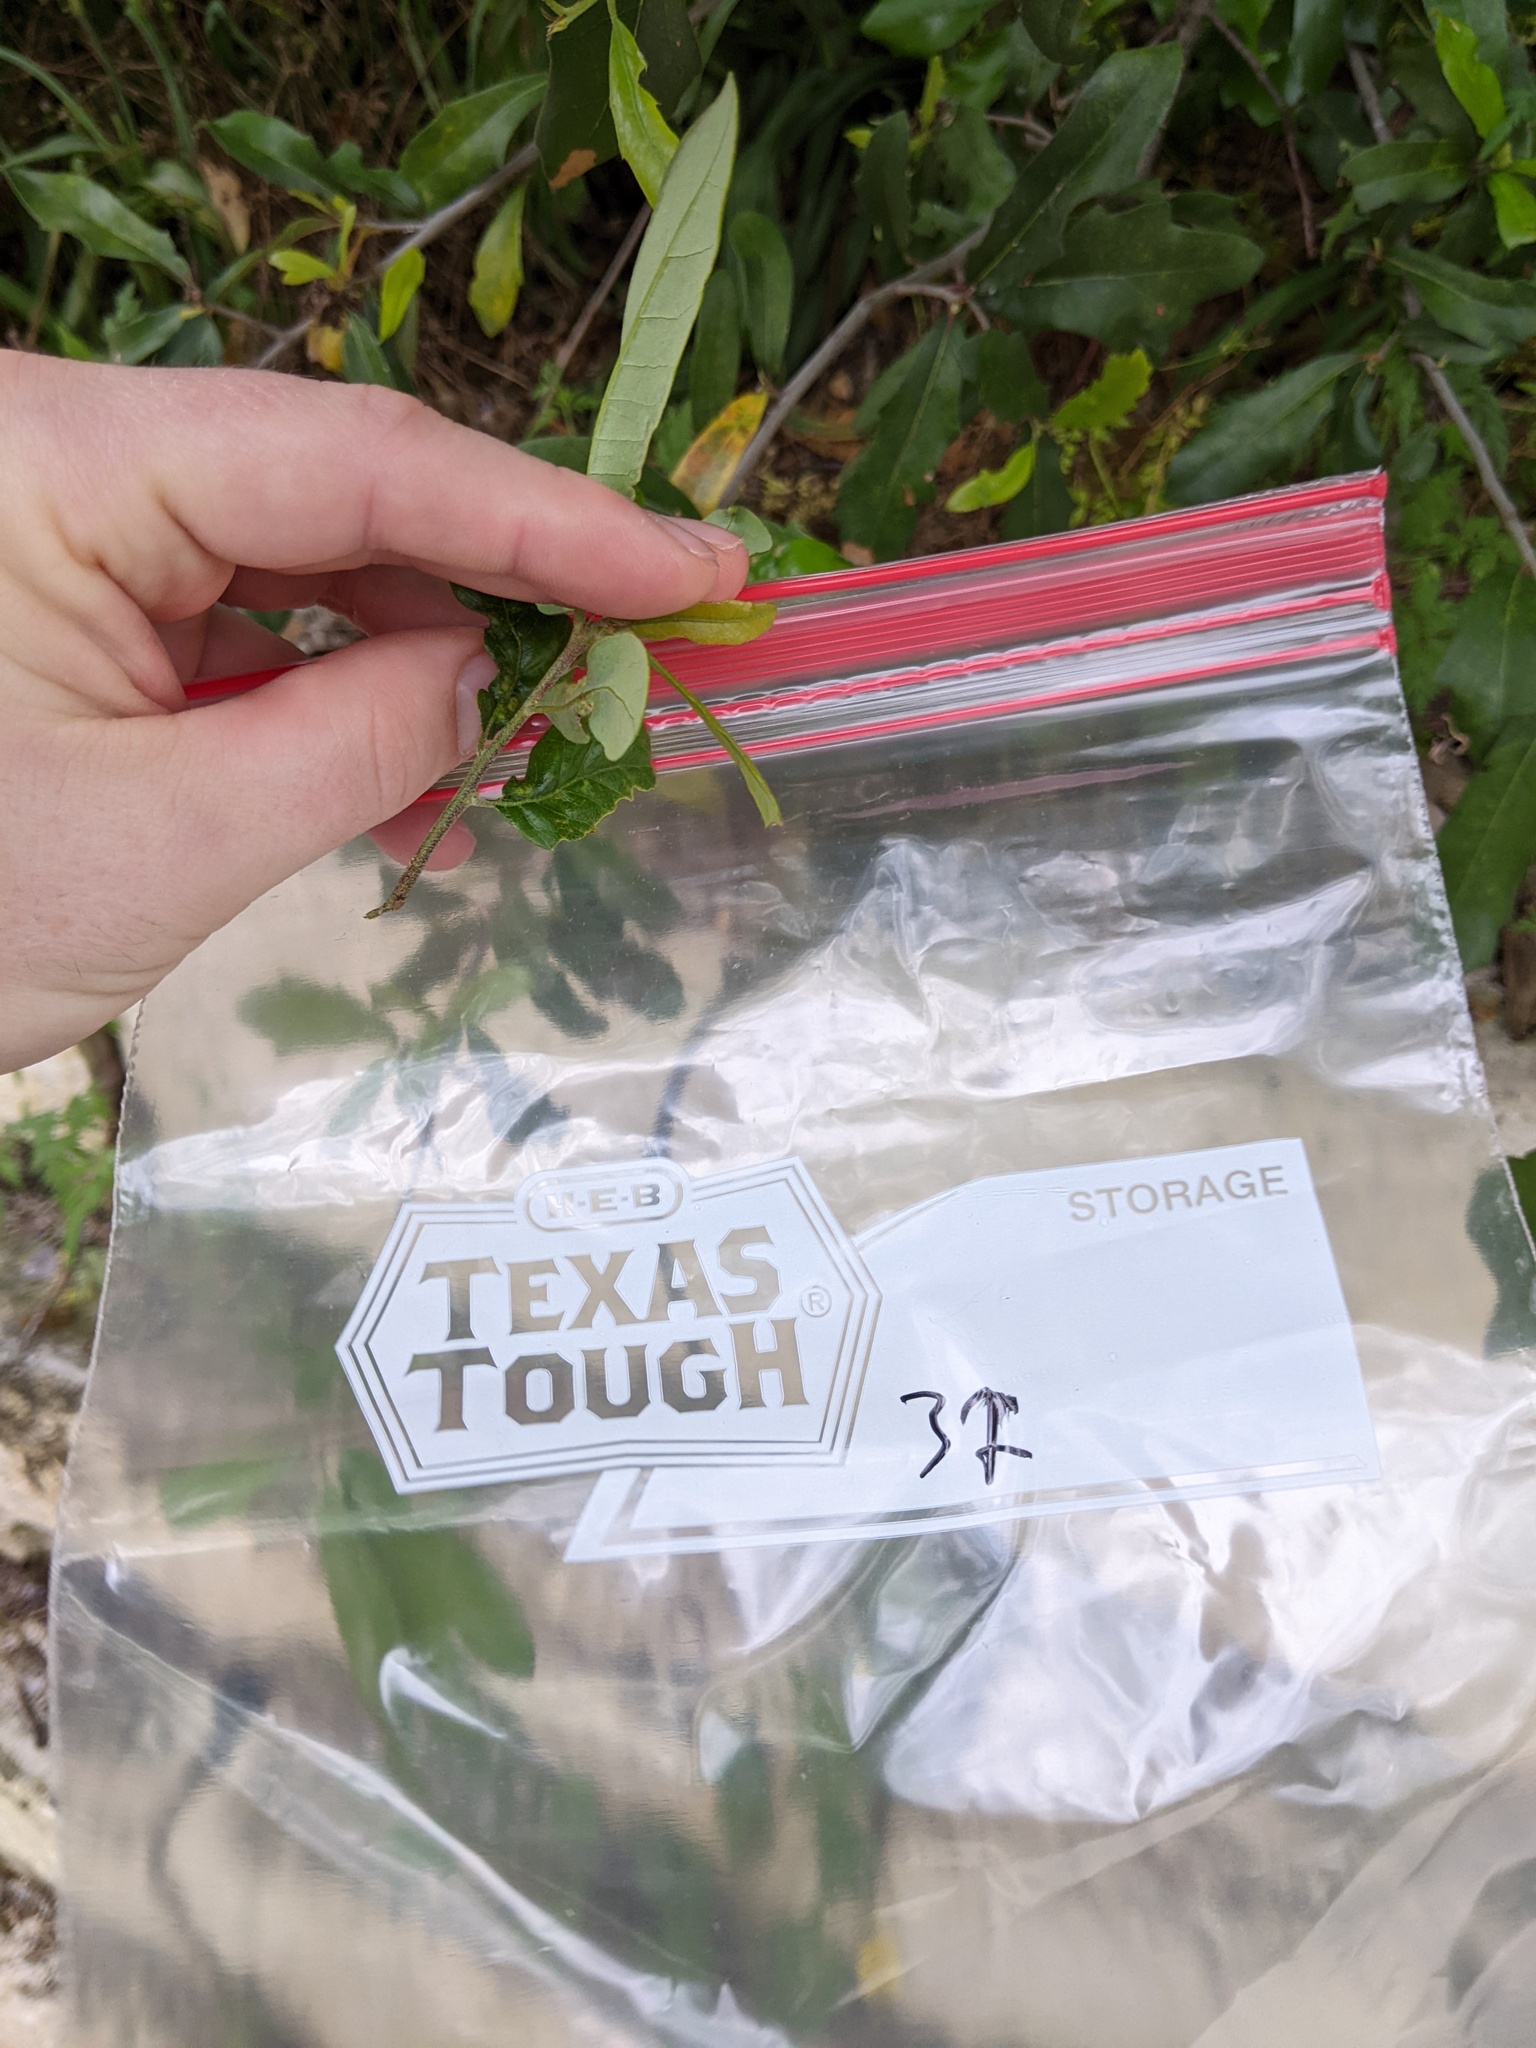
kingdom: Animalia
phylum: Arthropoda
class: Insecta
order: Hymenoptera
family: Cynipidae
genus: Neuroterus
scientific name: Neuroterus bussae
